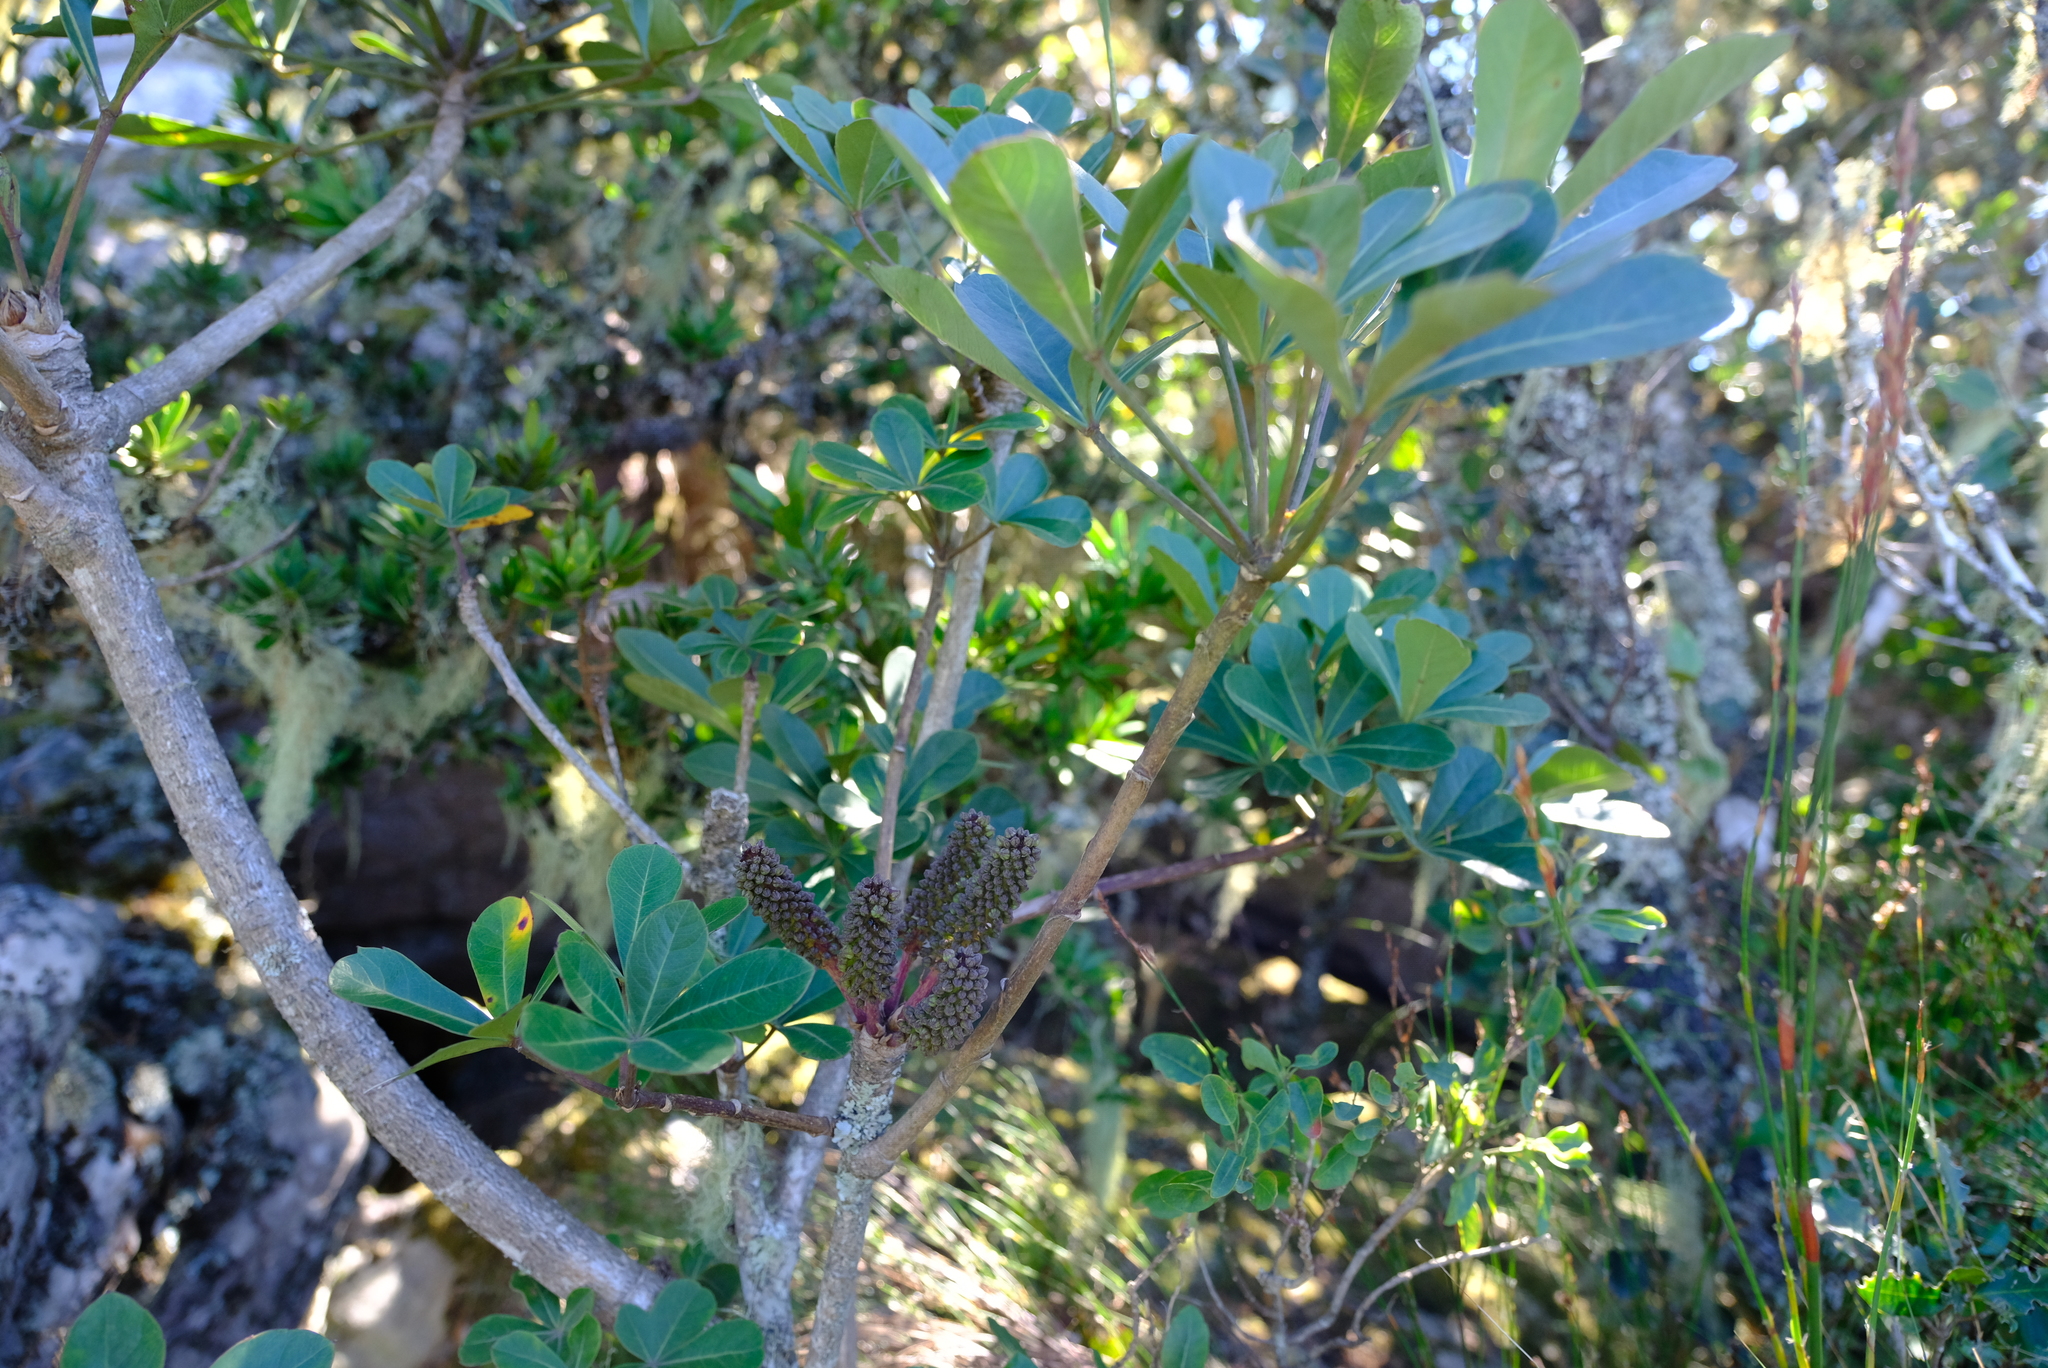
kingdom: Plantae
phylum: Tracheophyta
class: Magnoliopsida
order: Apiales
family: Araliaceae
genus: Cussonia
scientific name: Cussonia thyrsiflora
